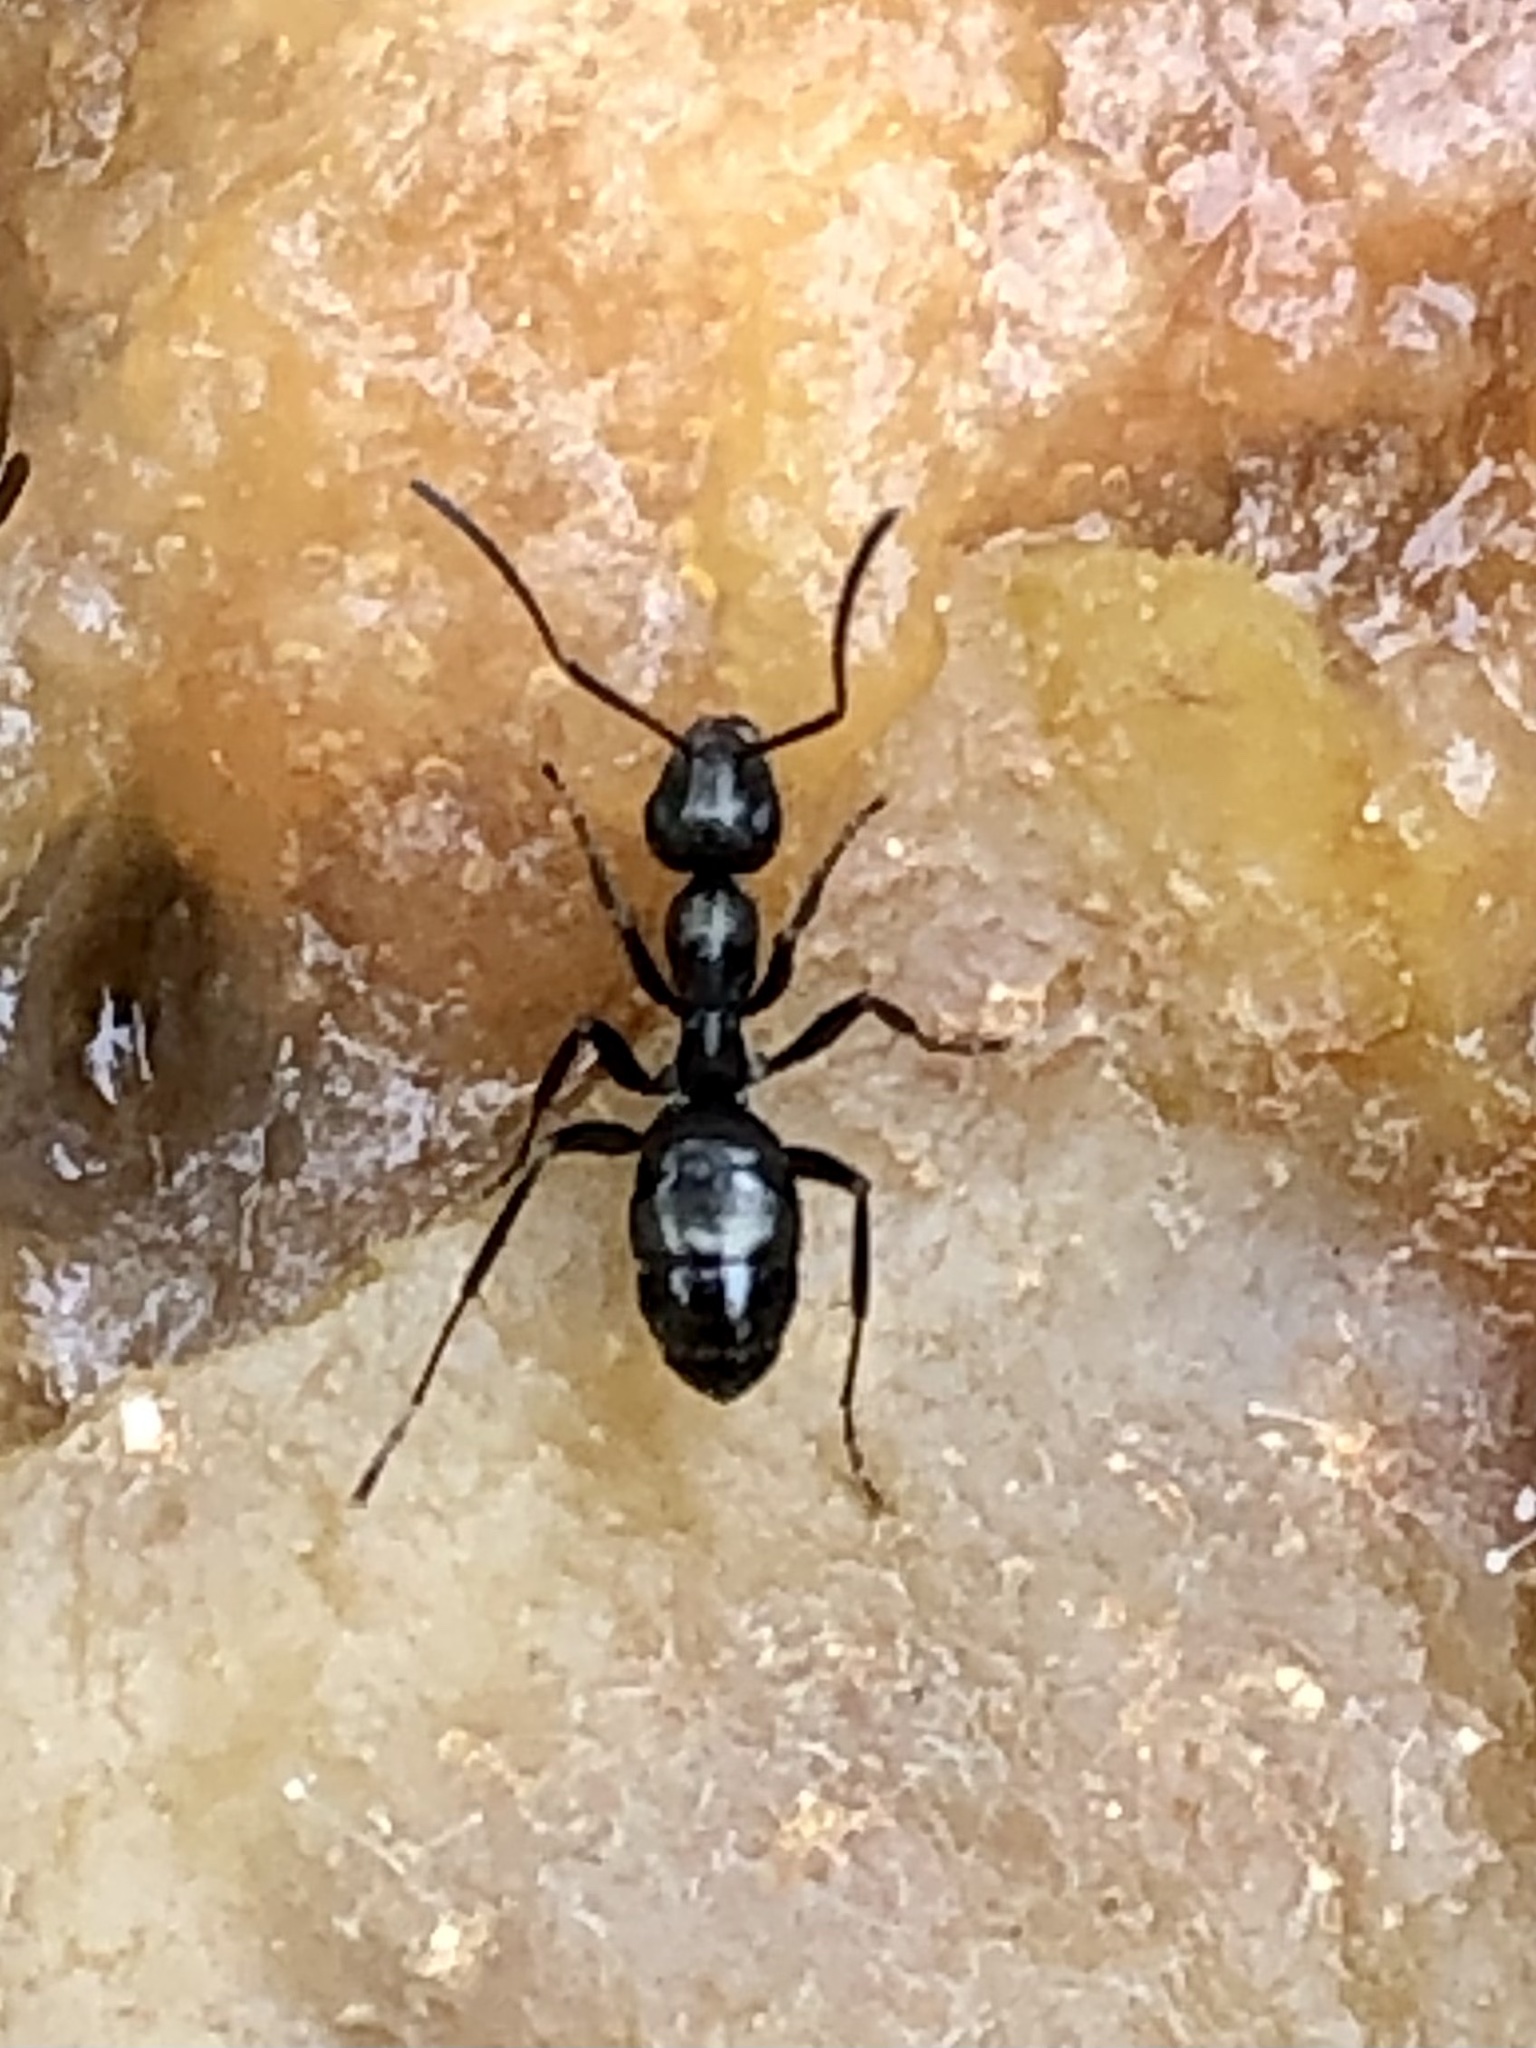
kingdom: Animalia
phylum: Arthropoda
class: Insecta
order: Hymenoptera
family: Formicidae
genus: Formica
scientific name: Formica subsericea
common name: Silky field ant
